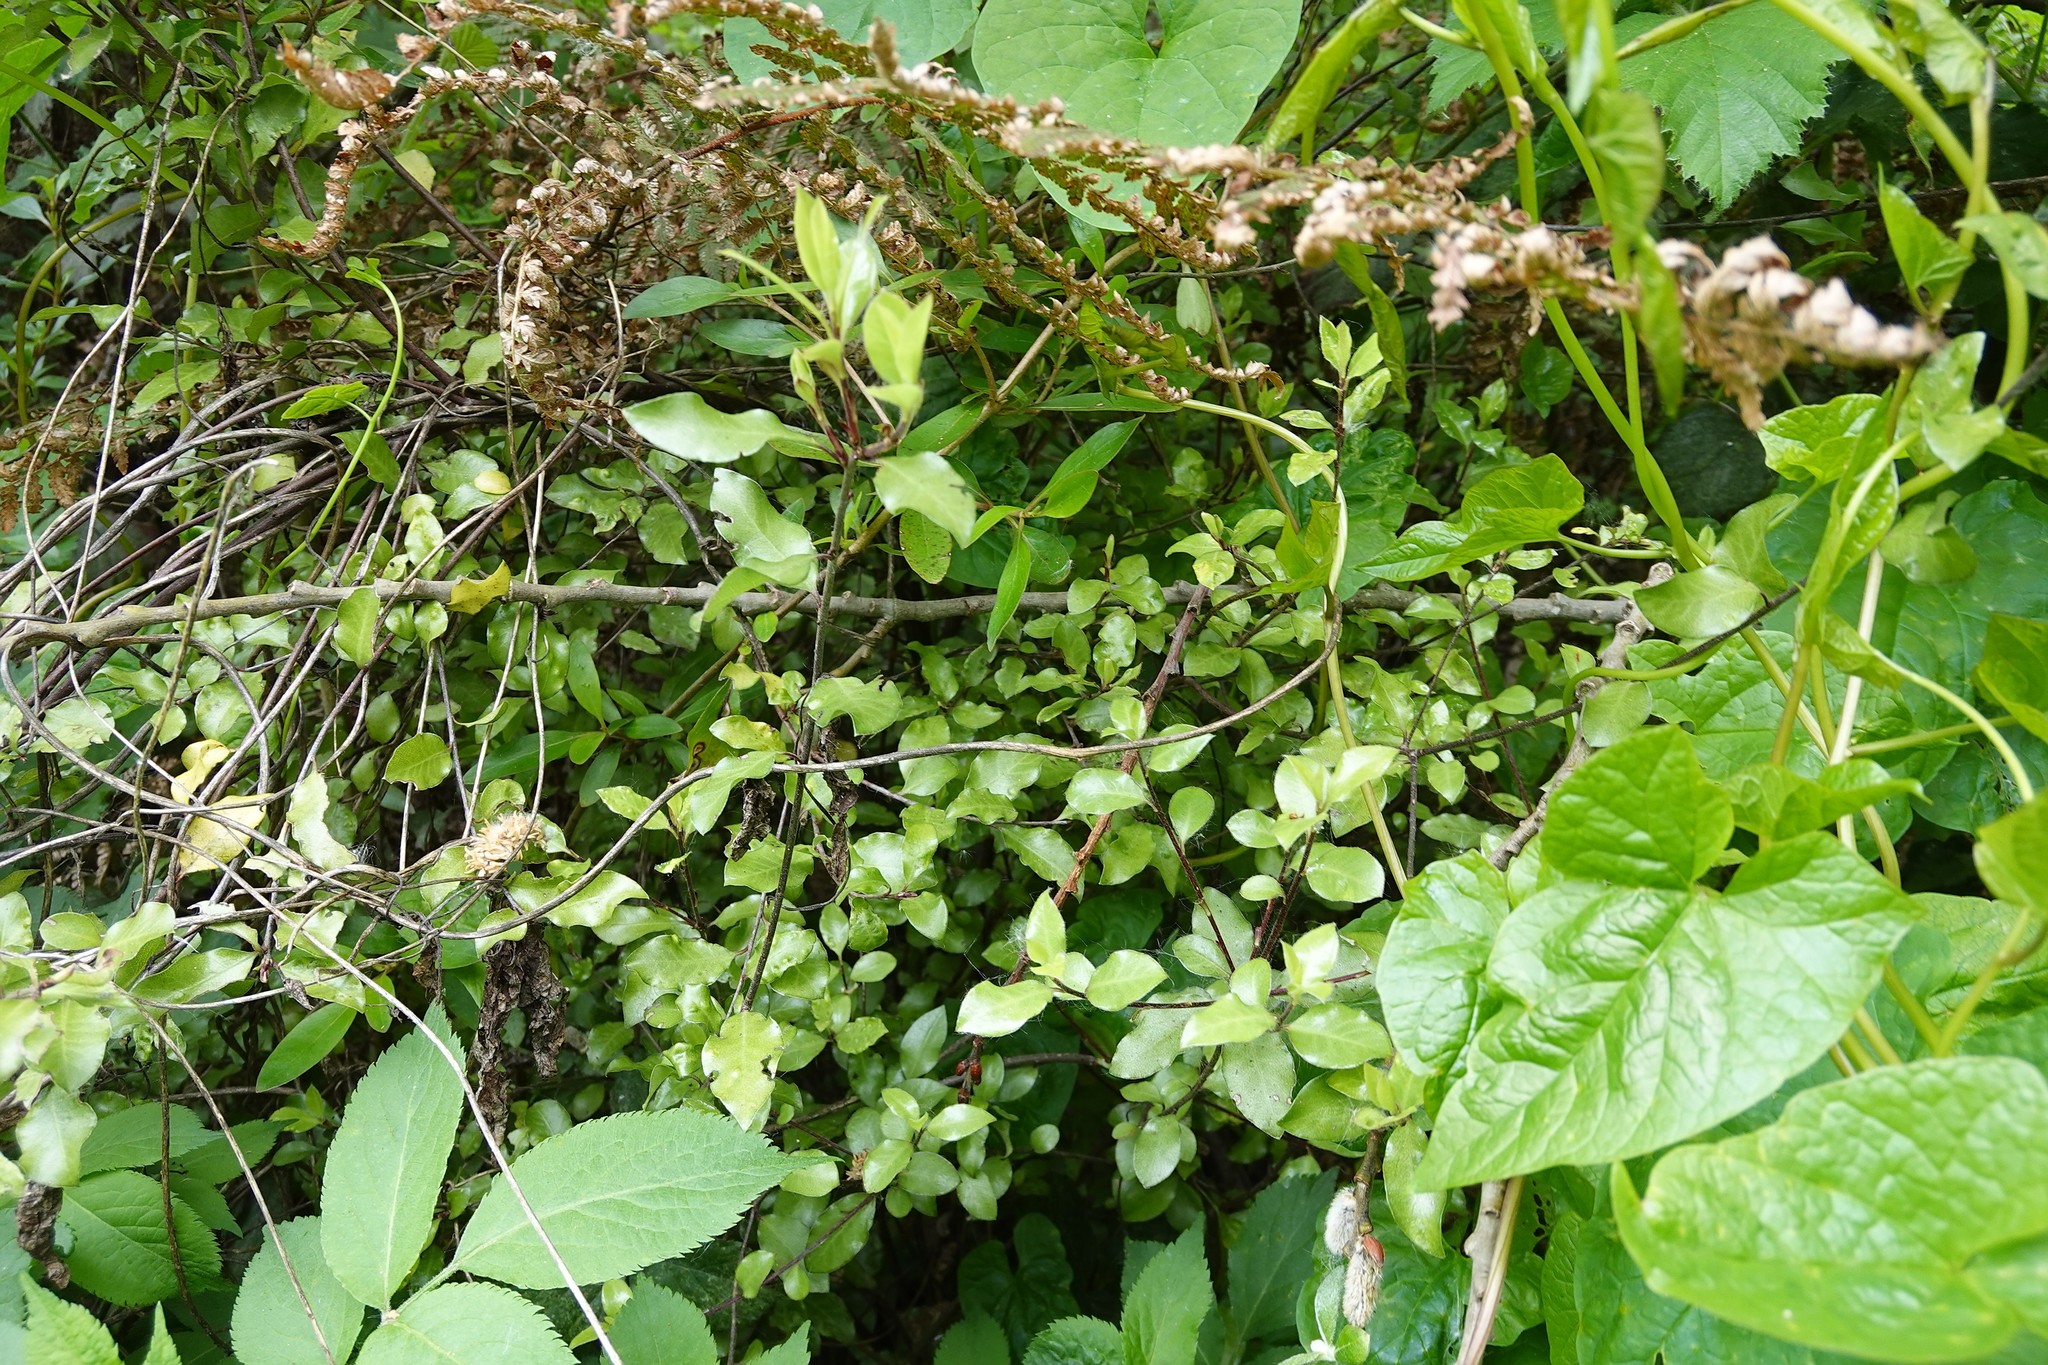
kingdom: Plantae
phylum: Tracheophyta
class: Magnoliopsida
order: Apiales
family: Pittosporaceae
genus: Pittosporum
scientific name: Pittosporum tenuifolium
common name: Kohuhu
